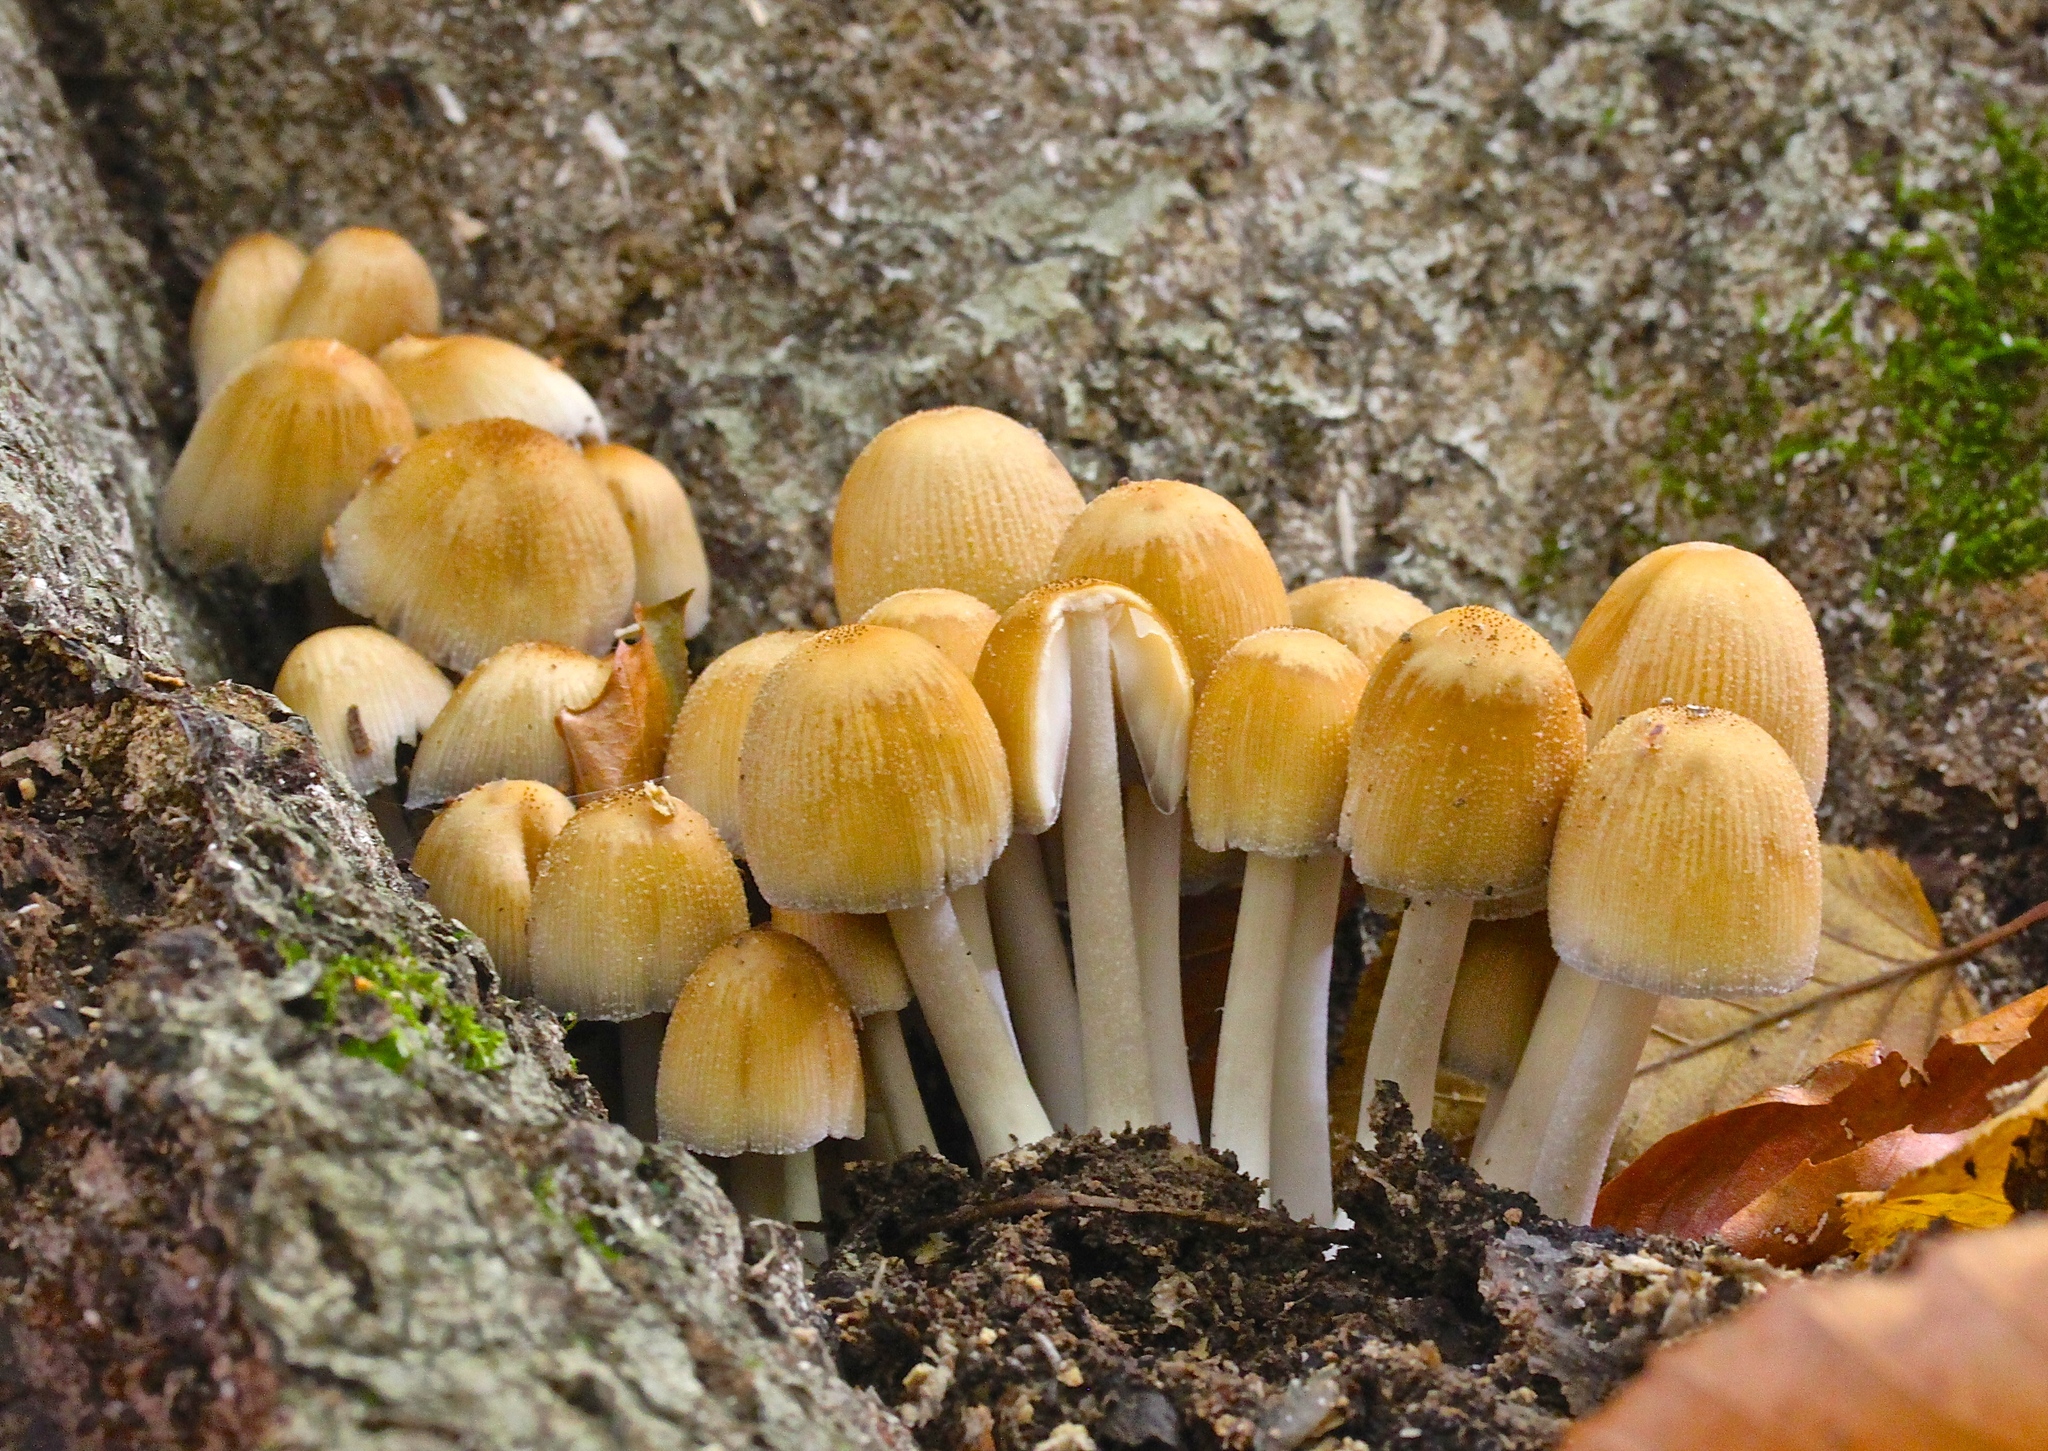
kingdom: Fungi
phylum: Basidiomycota
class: Agaricomycetes
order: Agaricales
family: Psathyrellaceae
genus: Coprinellus
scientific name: Coprinellus micaceus
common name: Glistening ink-cap
